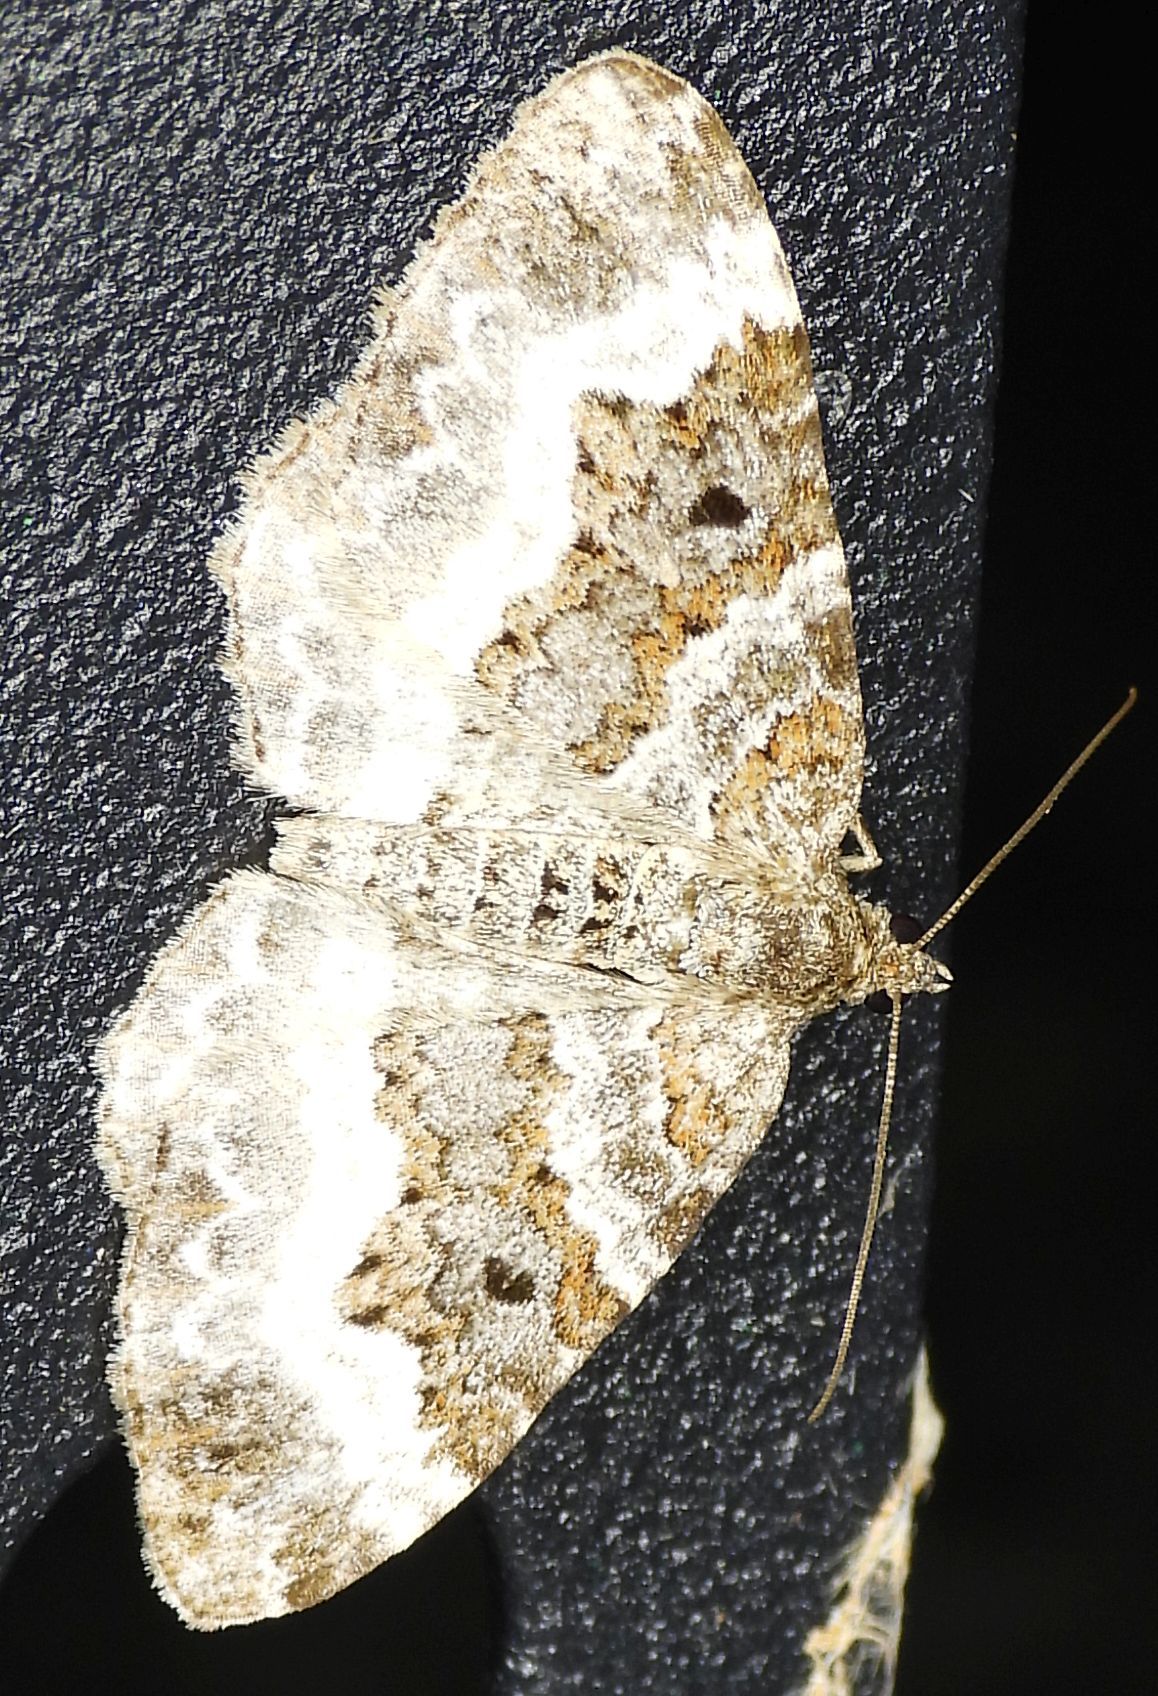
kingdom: Animalia
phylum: Arthropoda
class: Insecta
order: Lepidoptera
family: Geometridae
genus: Epirrhoe
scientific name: Epirrhoe alternata
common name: Common carpet
